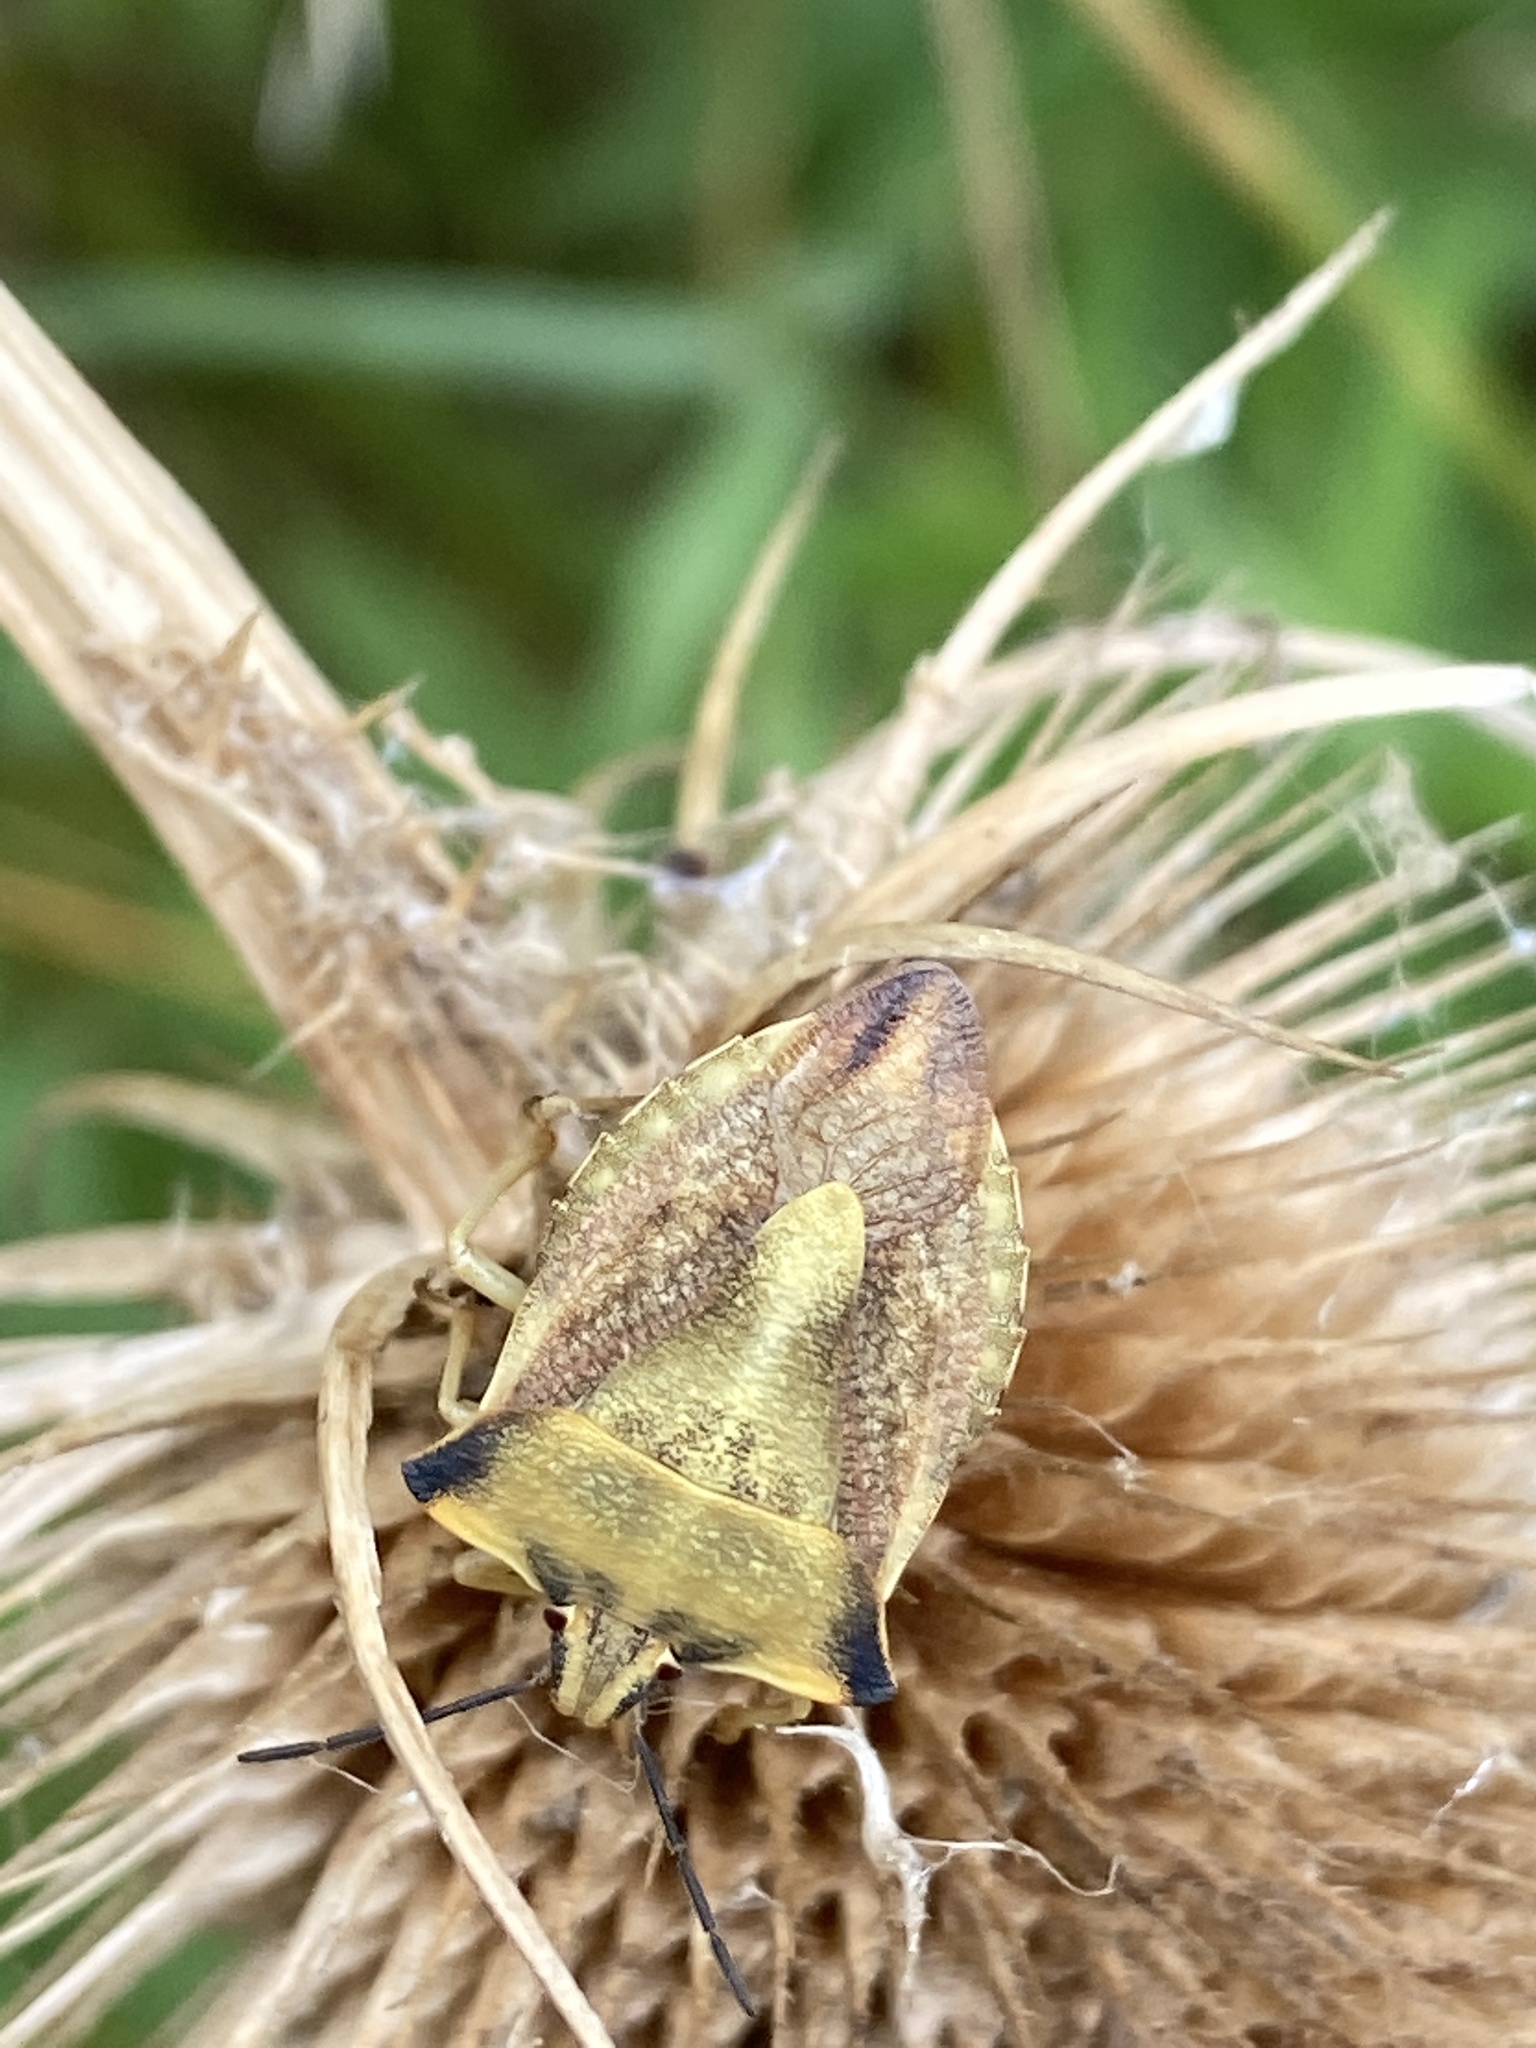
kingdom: Animalia
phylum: Arthropoda
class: Insecta
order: Hemiptera
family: Pentatomidae
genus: Carpocoris
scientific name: Carpocoris fuscispinus
